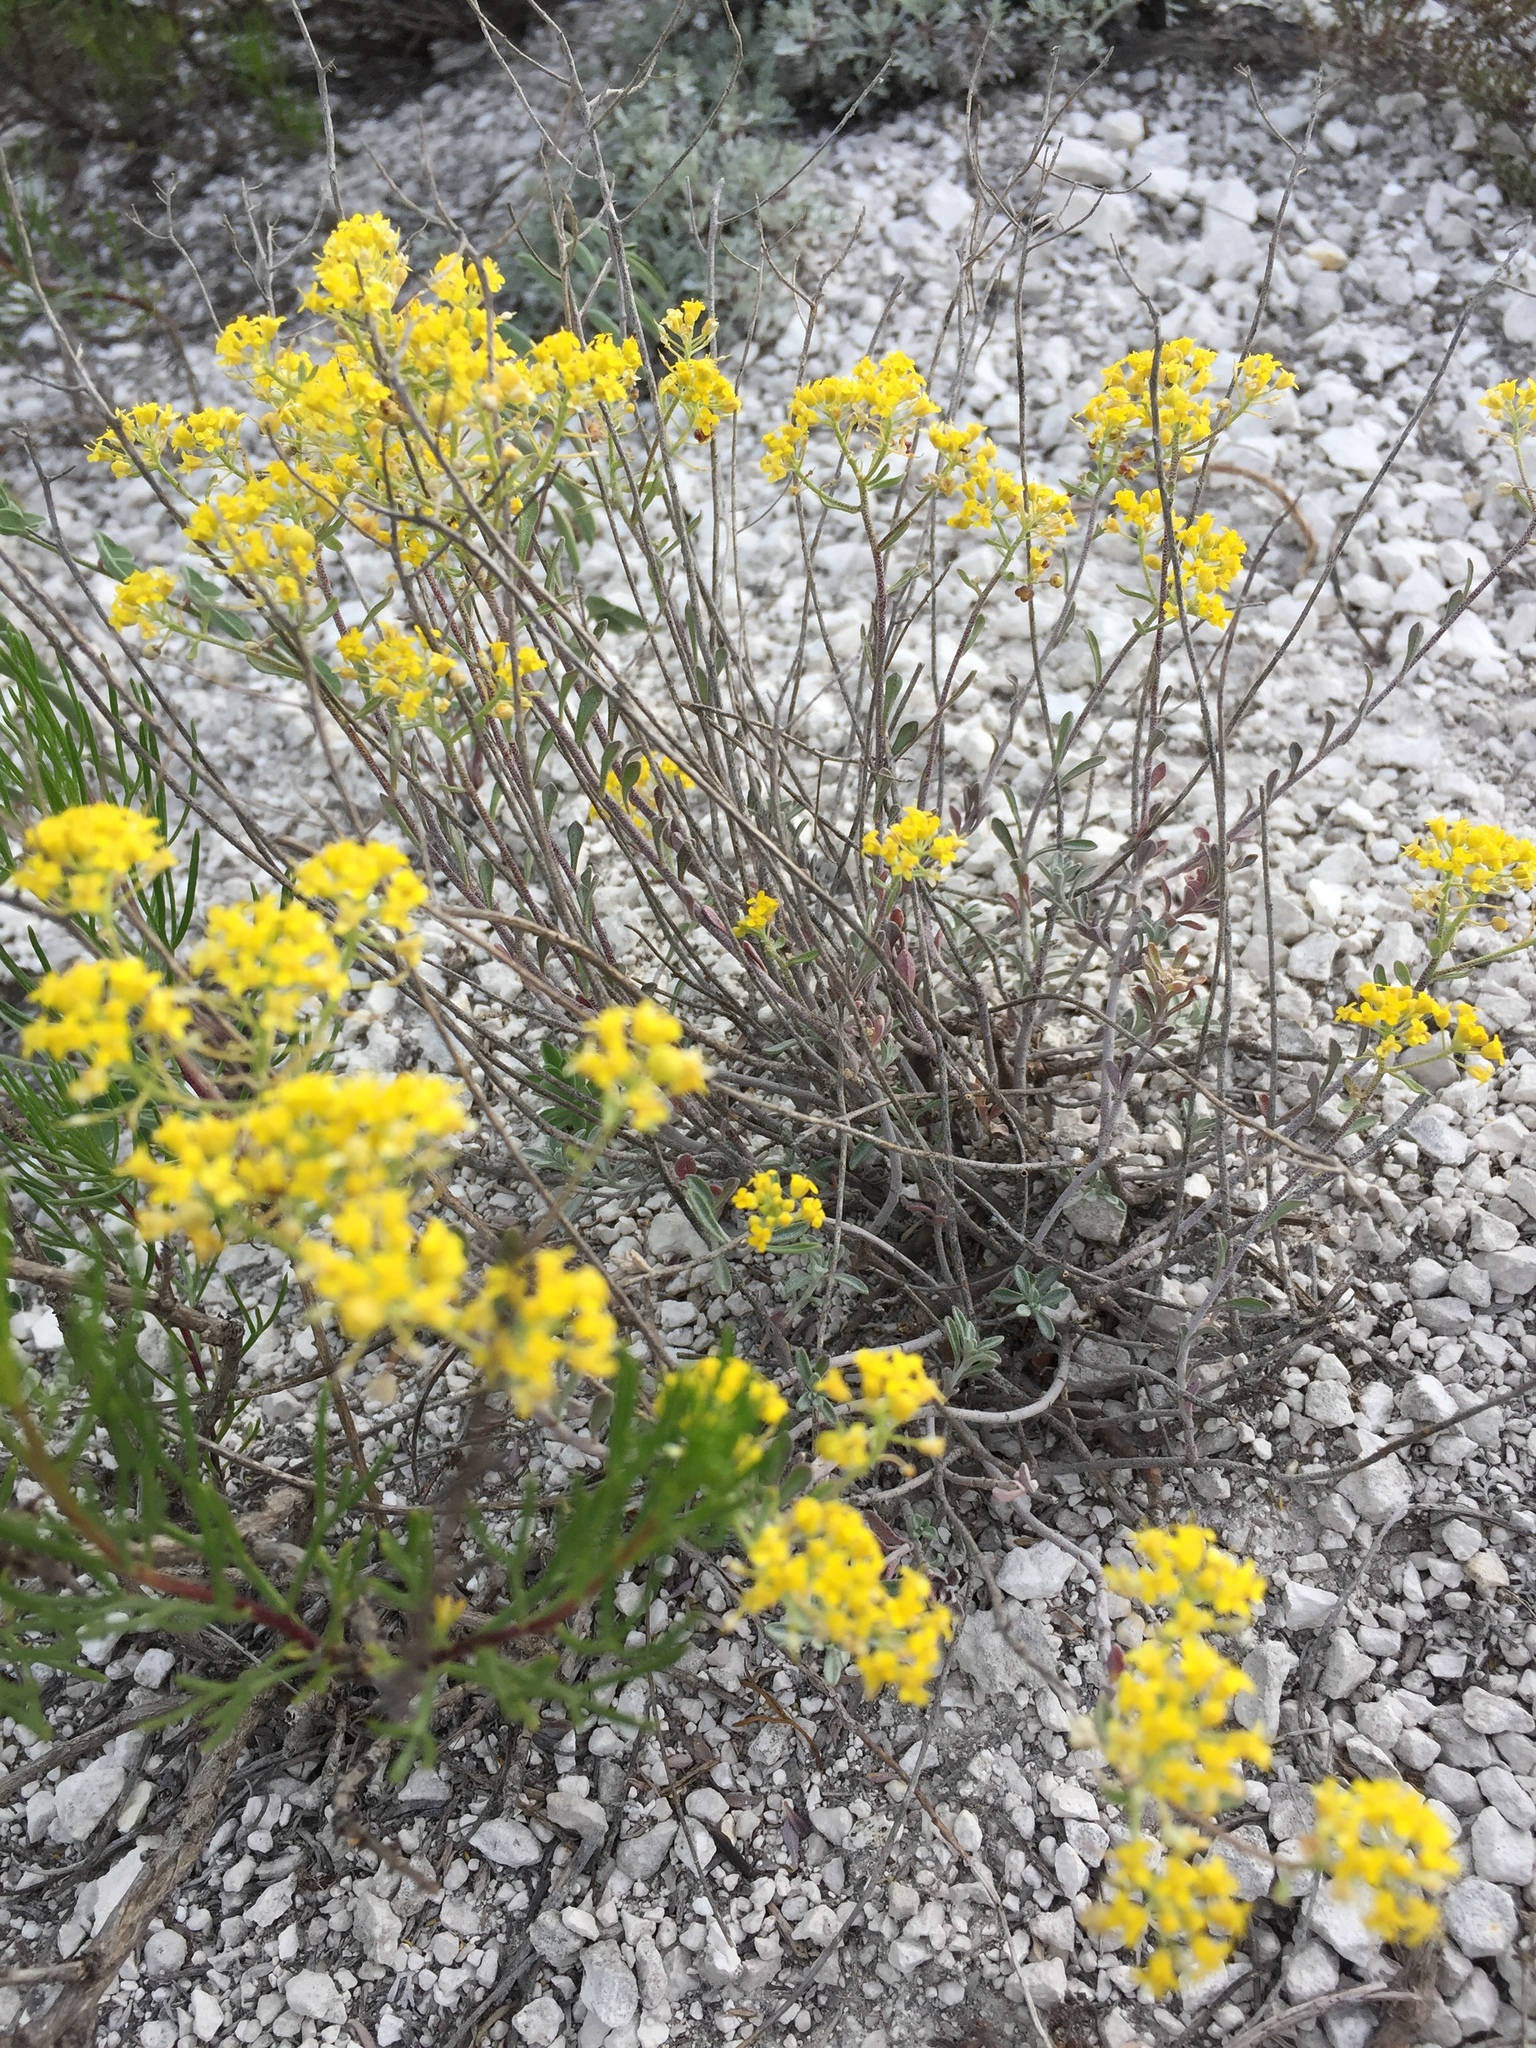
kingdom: Plantae
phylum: Tracheophyta
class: Magnoliopsida
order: Brassicales
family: Brassicaceae
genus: Odontarrhena
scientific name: Odontarrhena tortuosa
